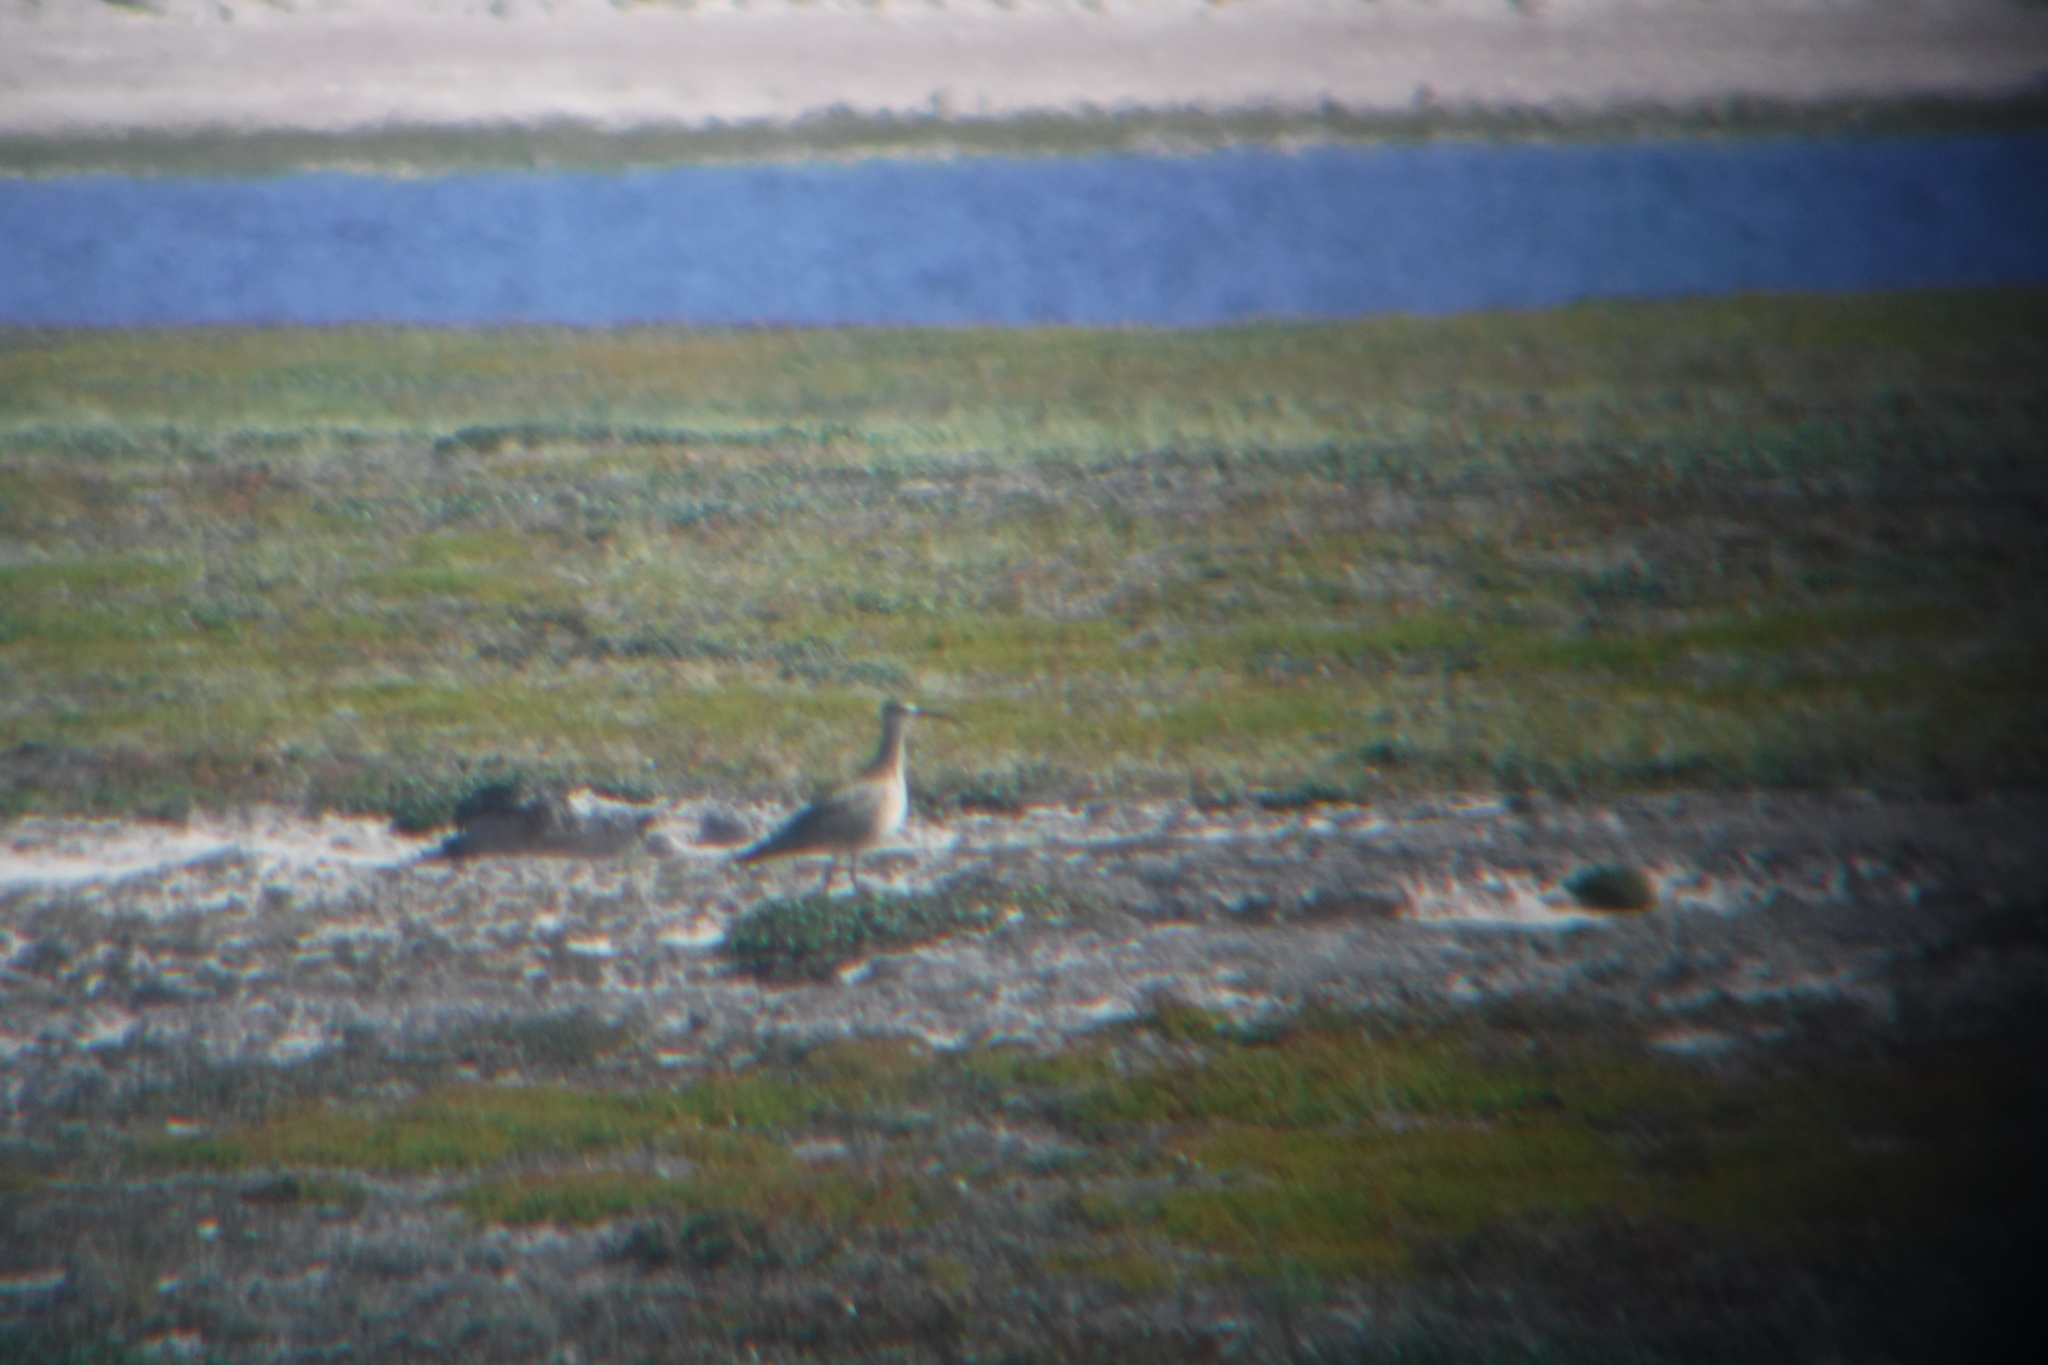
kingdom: Animalia
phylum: Chordata
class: Aves
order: Charadriiformes
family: Scolopacidae
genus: Numenius
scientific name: Numenius phaeopus
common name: Whimbrel
